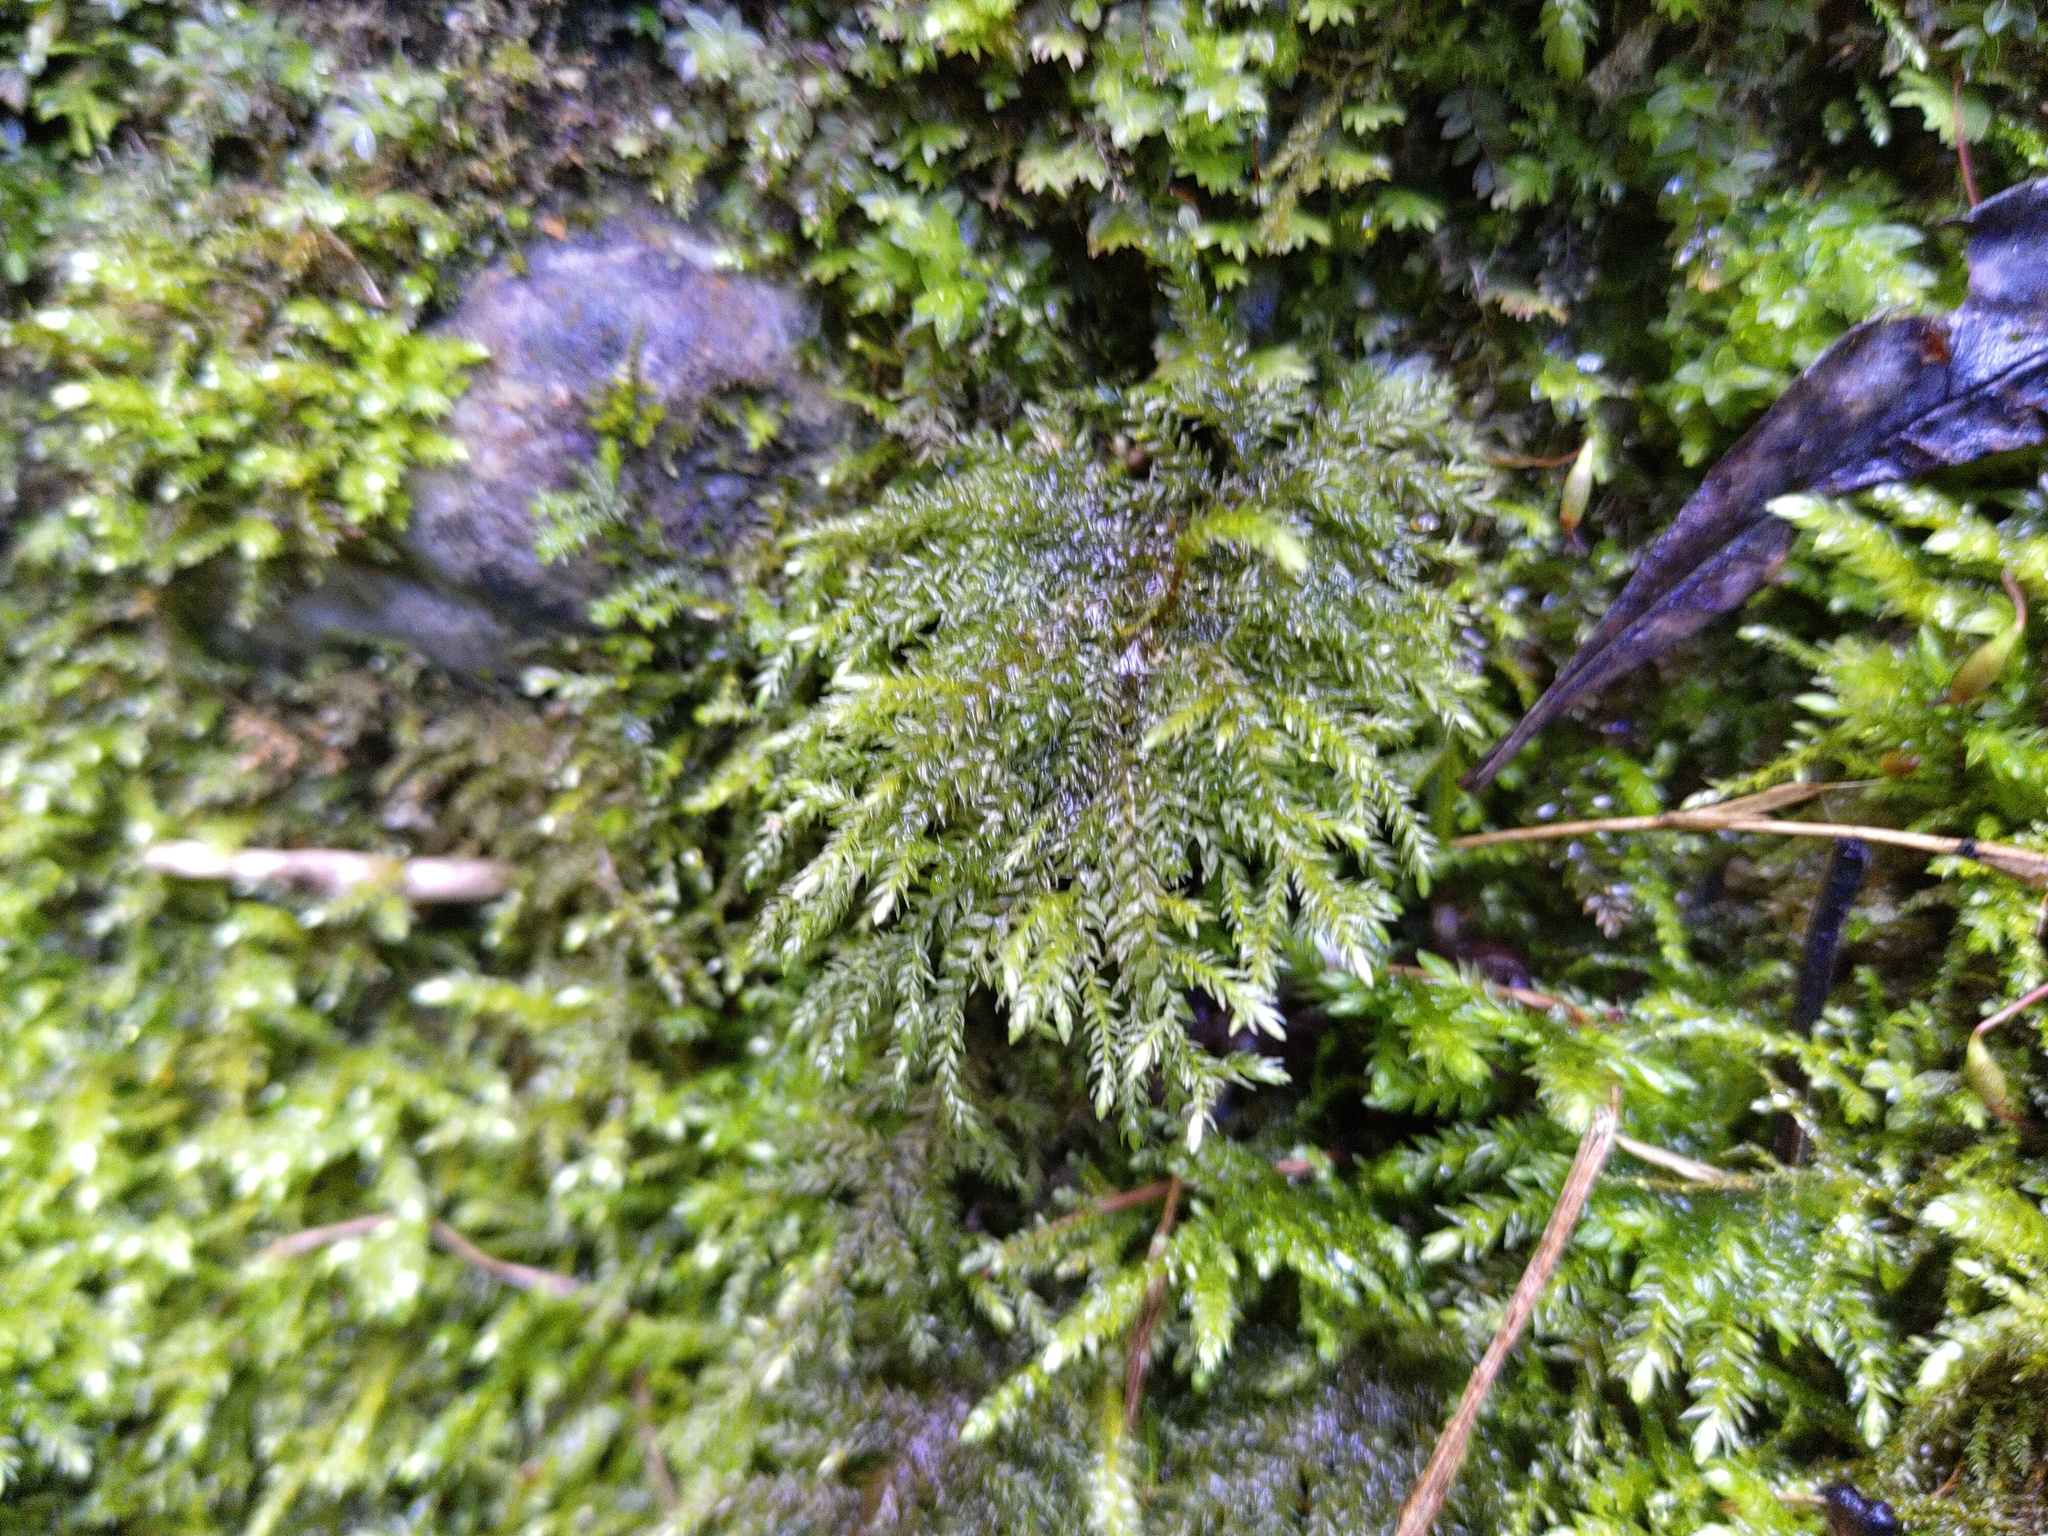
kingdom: Plantae
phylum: Bryophyta
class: Bryopsida
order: Hypnales
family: Neckeraceae
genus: Thamnobryum
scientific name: Thamnobryum alopecurum
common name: Fox-tail feather-moss
